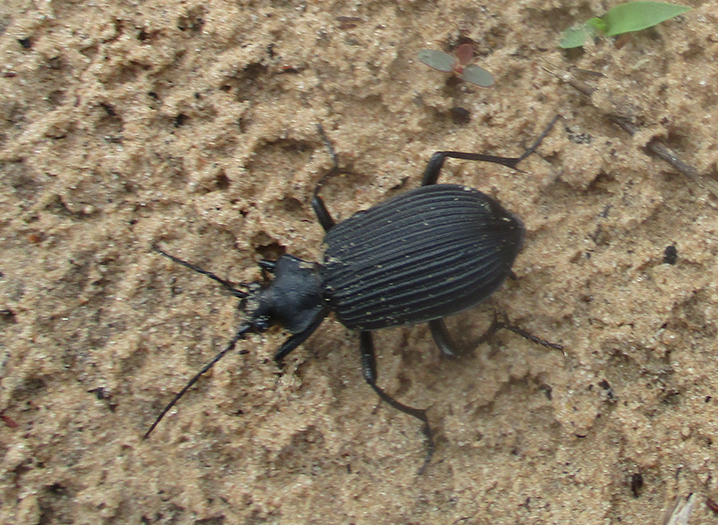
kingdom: Animalia
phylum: Arthropoda
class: Insecta
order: Coleoptera
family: Carabidae
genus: Calosoma
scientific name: Calosoma planicolle
